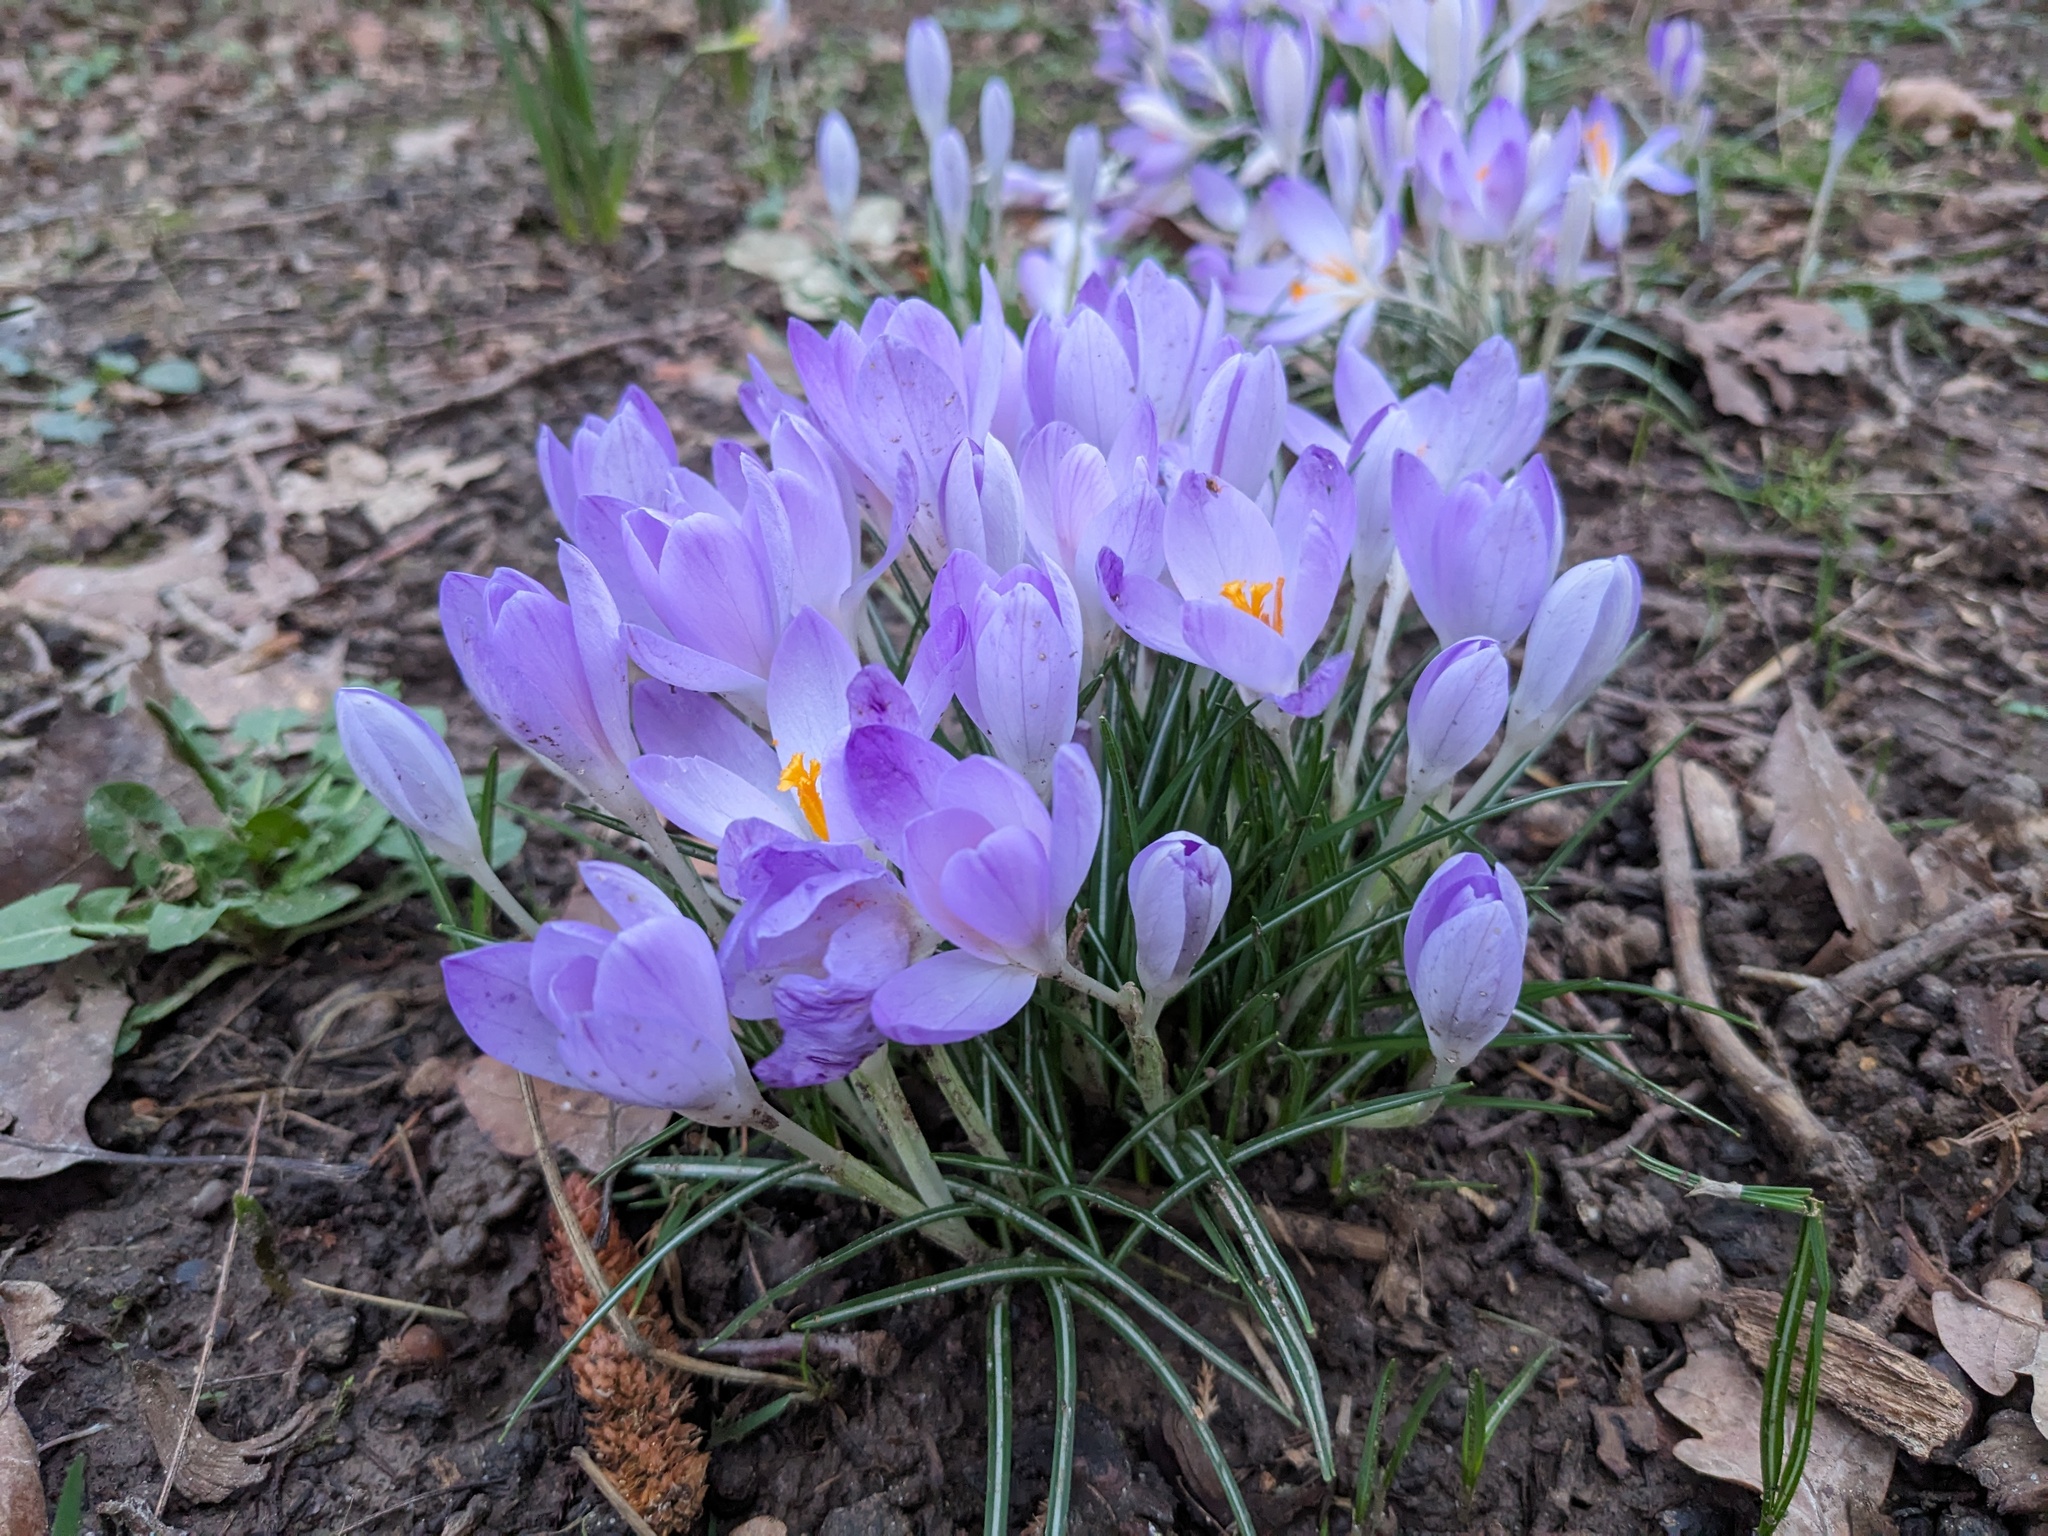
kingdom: Plantae
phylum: Tracheophyta
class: Liliopsida
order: Asparagales
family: Iridaceae
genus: Crocus
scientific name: Crocus tommasinianus
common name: Early crocus
